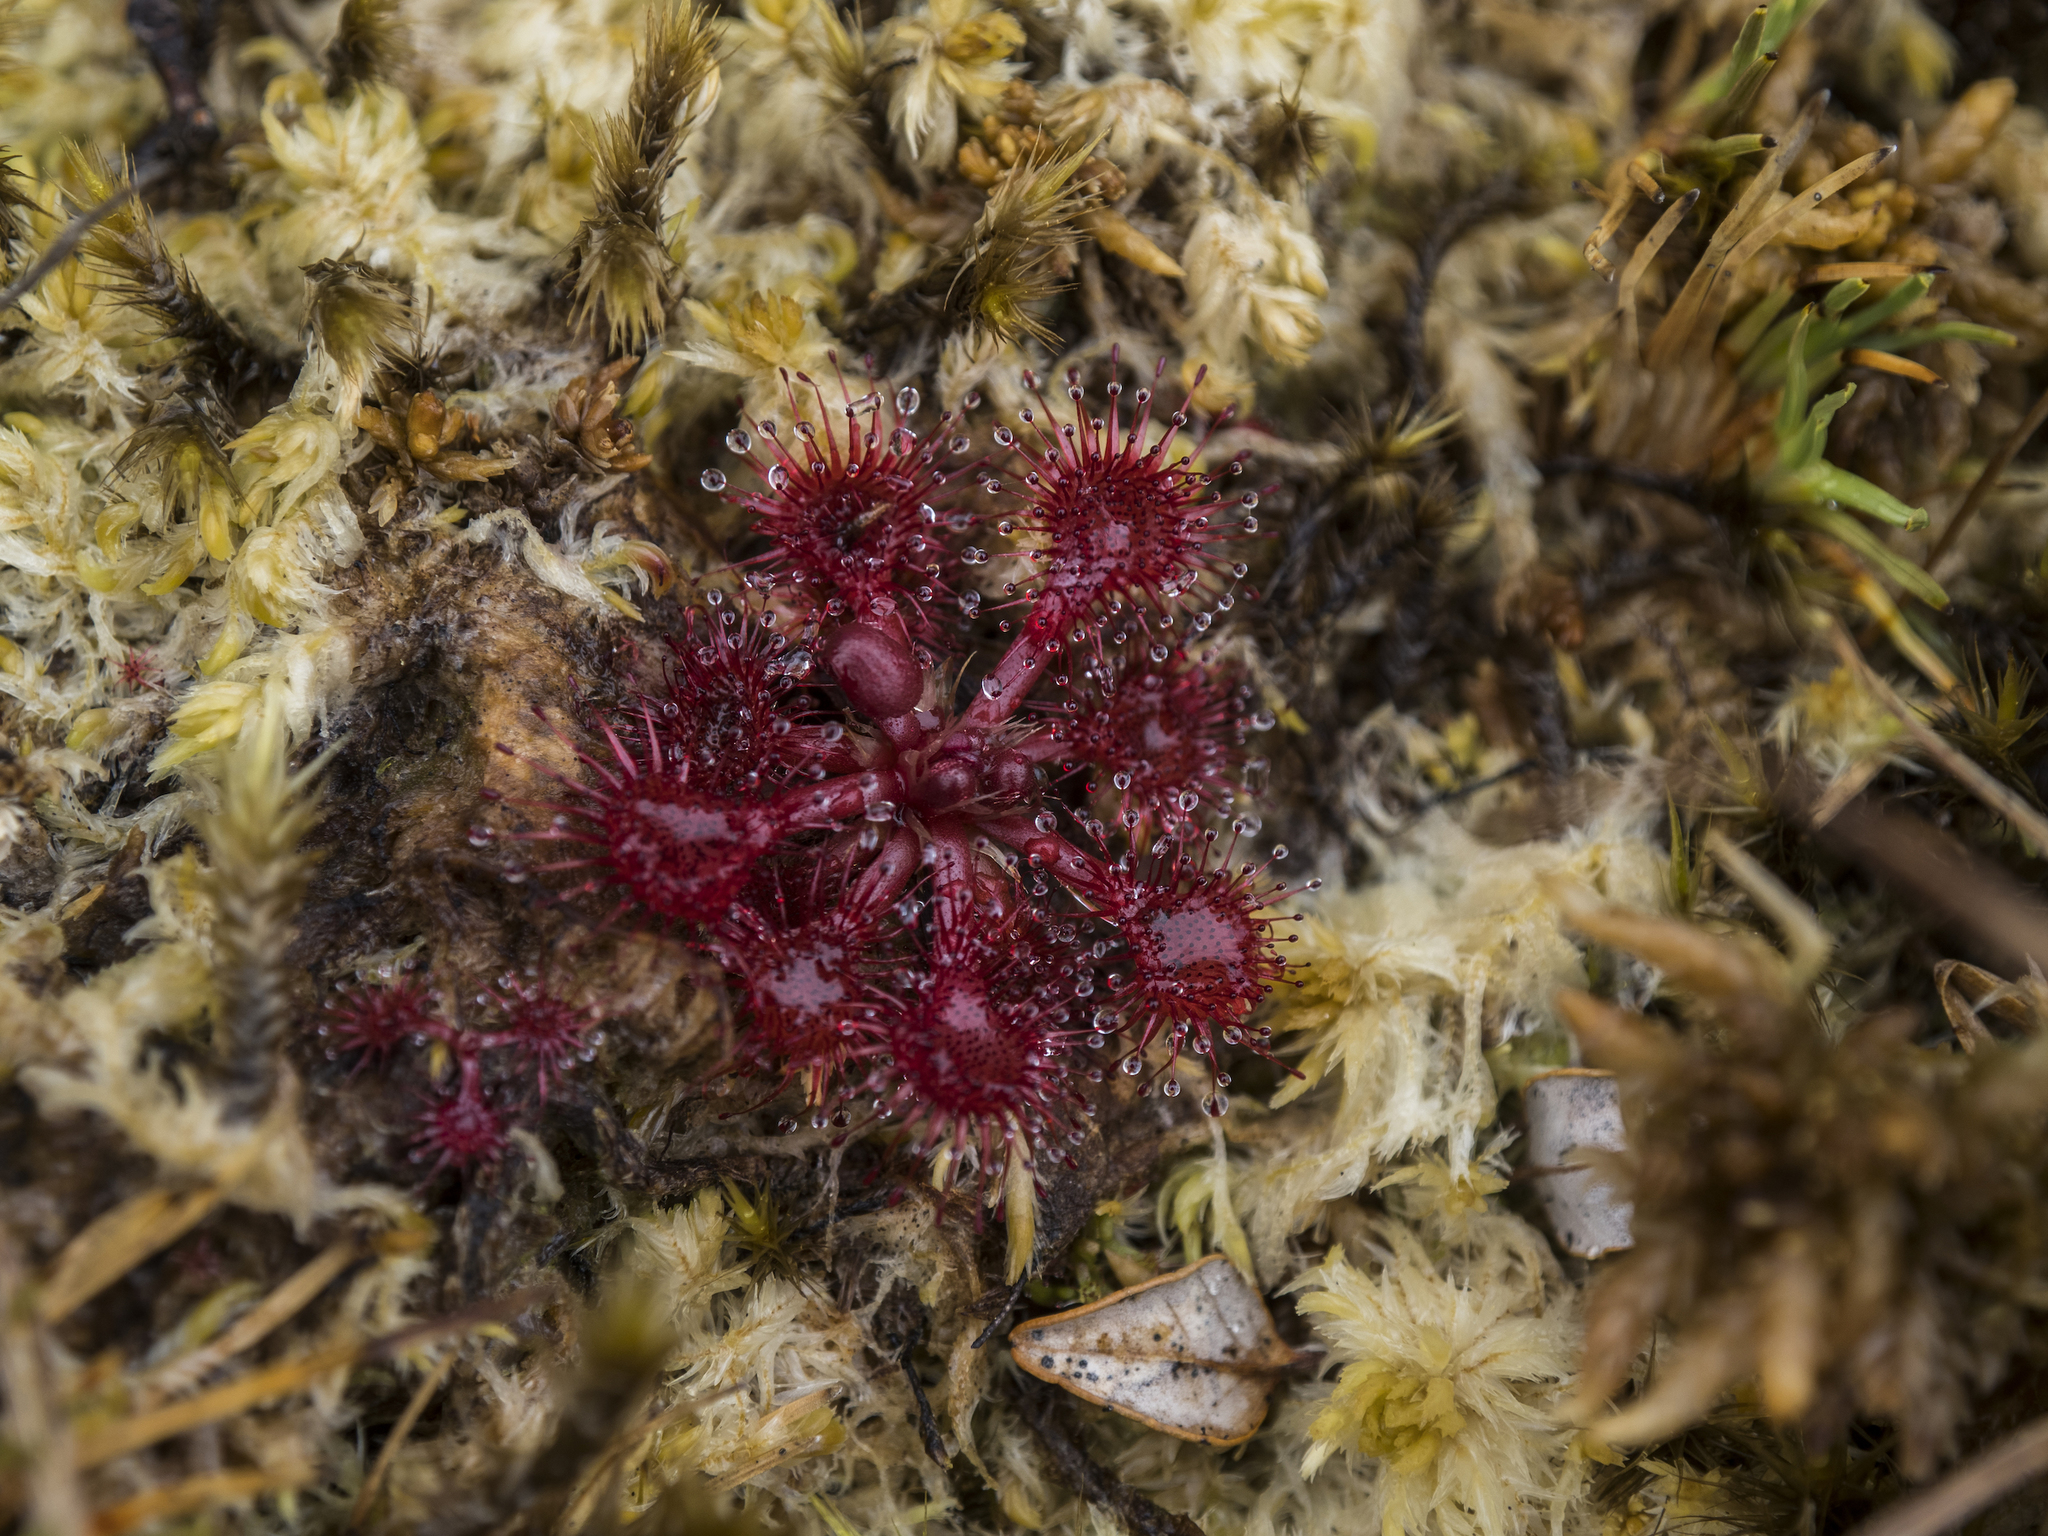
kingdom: Plantae
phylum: Tracheophyta
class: Magnoliopsida
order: Caryophyllales
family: Droseraceae
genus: Drosera
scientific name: Drosera spatulata
